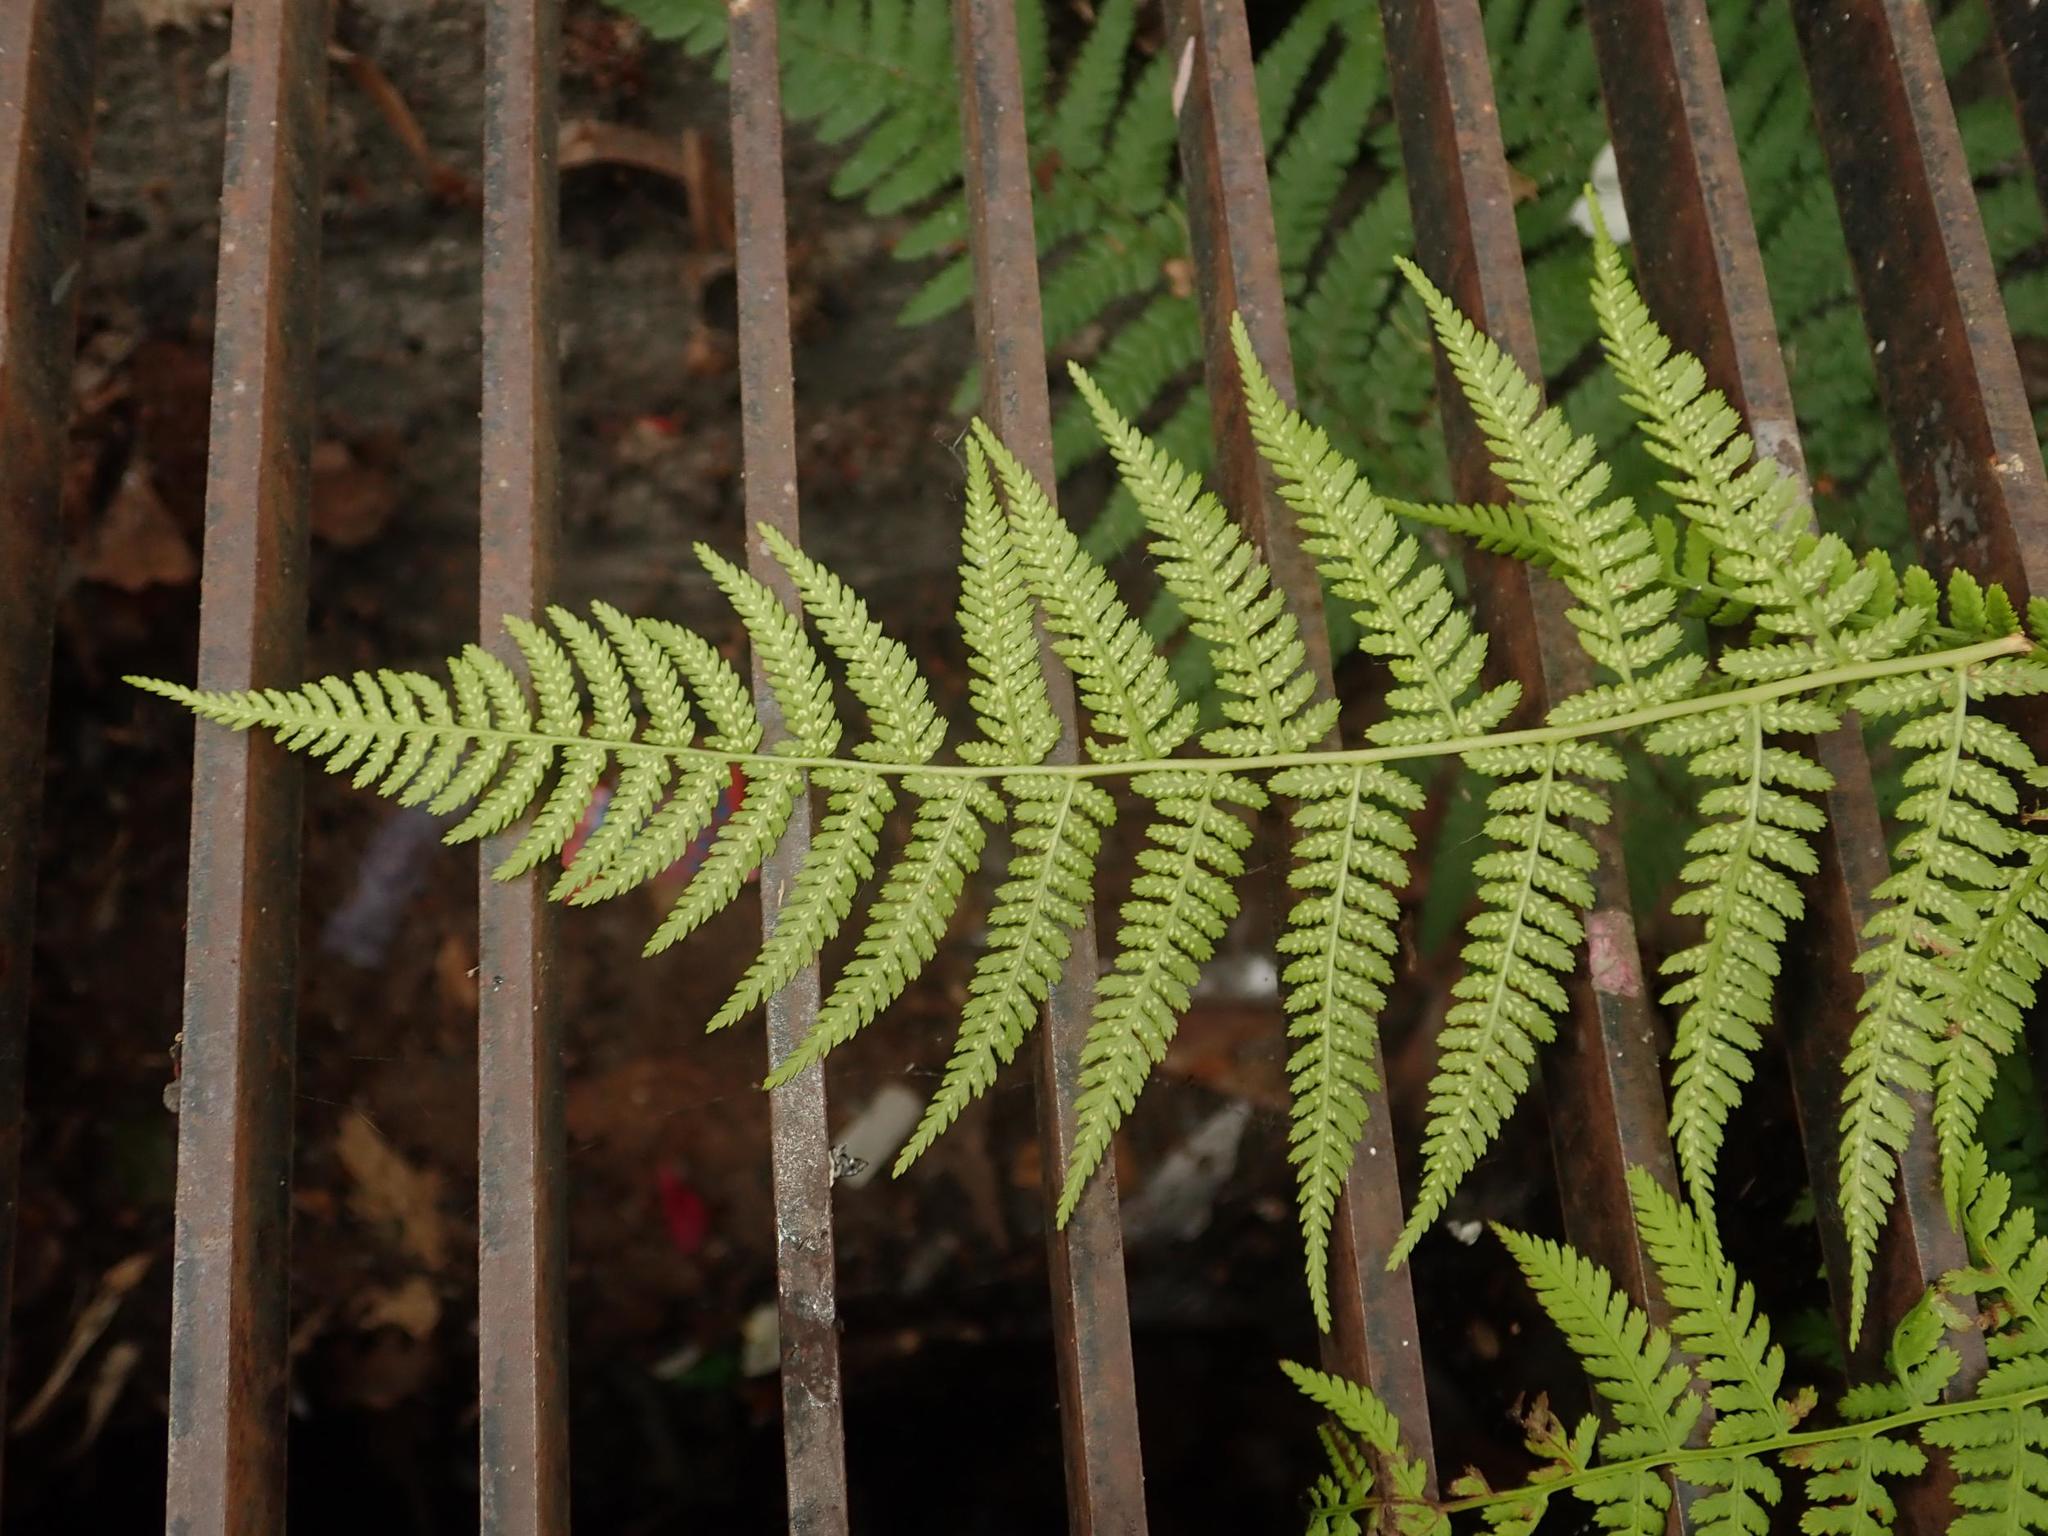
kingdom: Plantae
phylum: Tracheophyta
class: Polypodiopsida
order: Polypodiales
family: Athyriaceae
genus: Athyrium
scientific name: Athyrium filix-femina
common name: Lady fern
